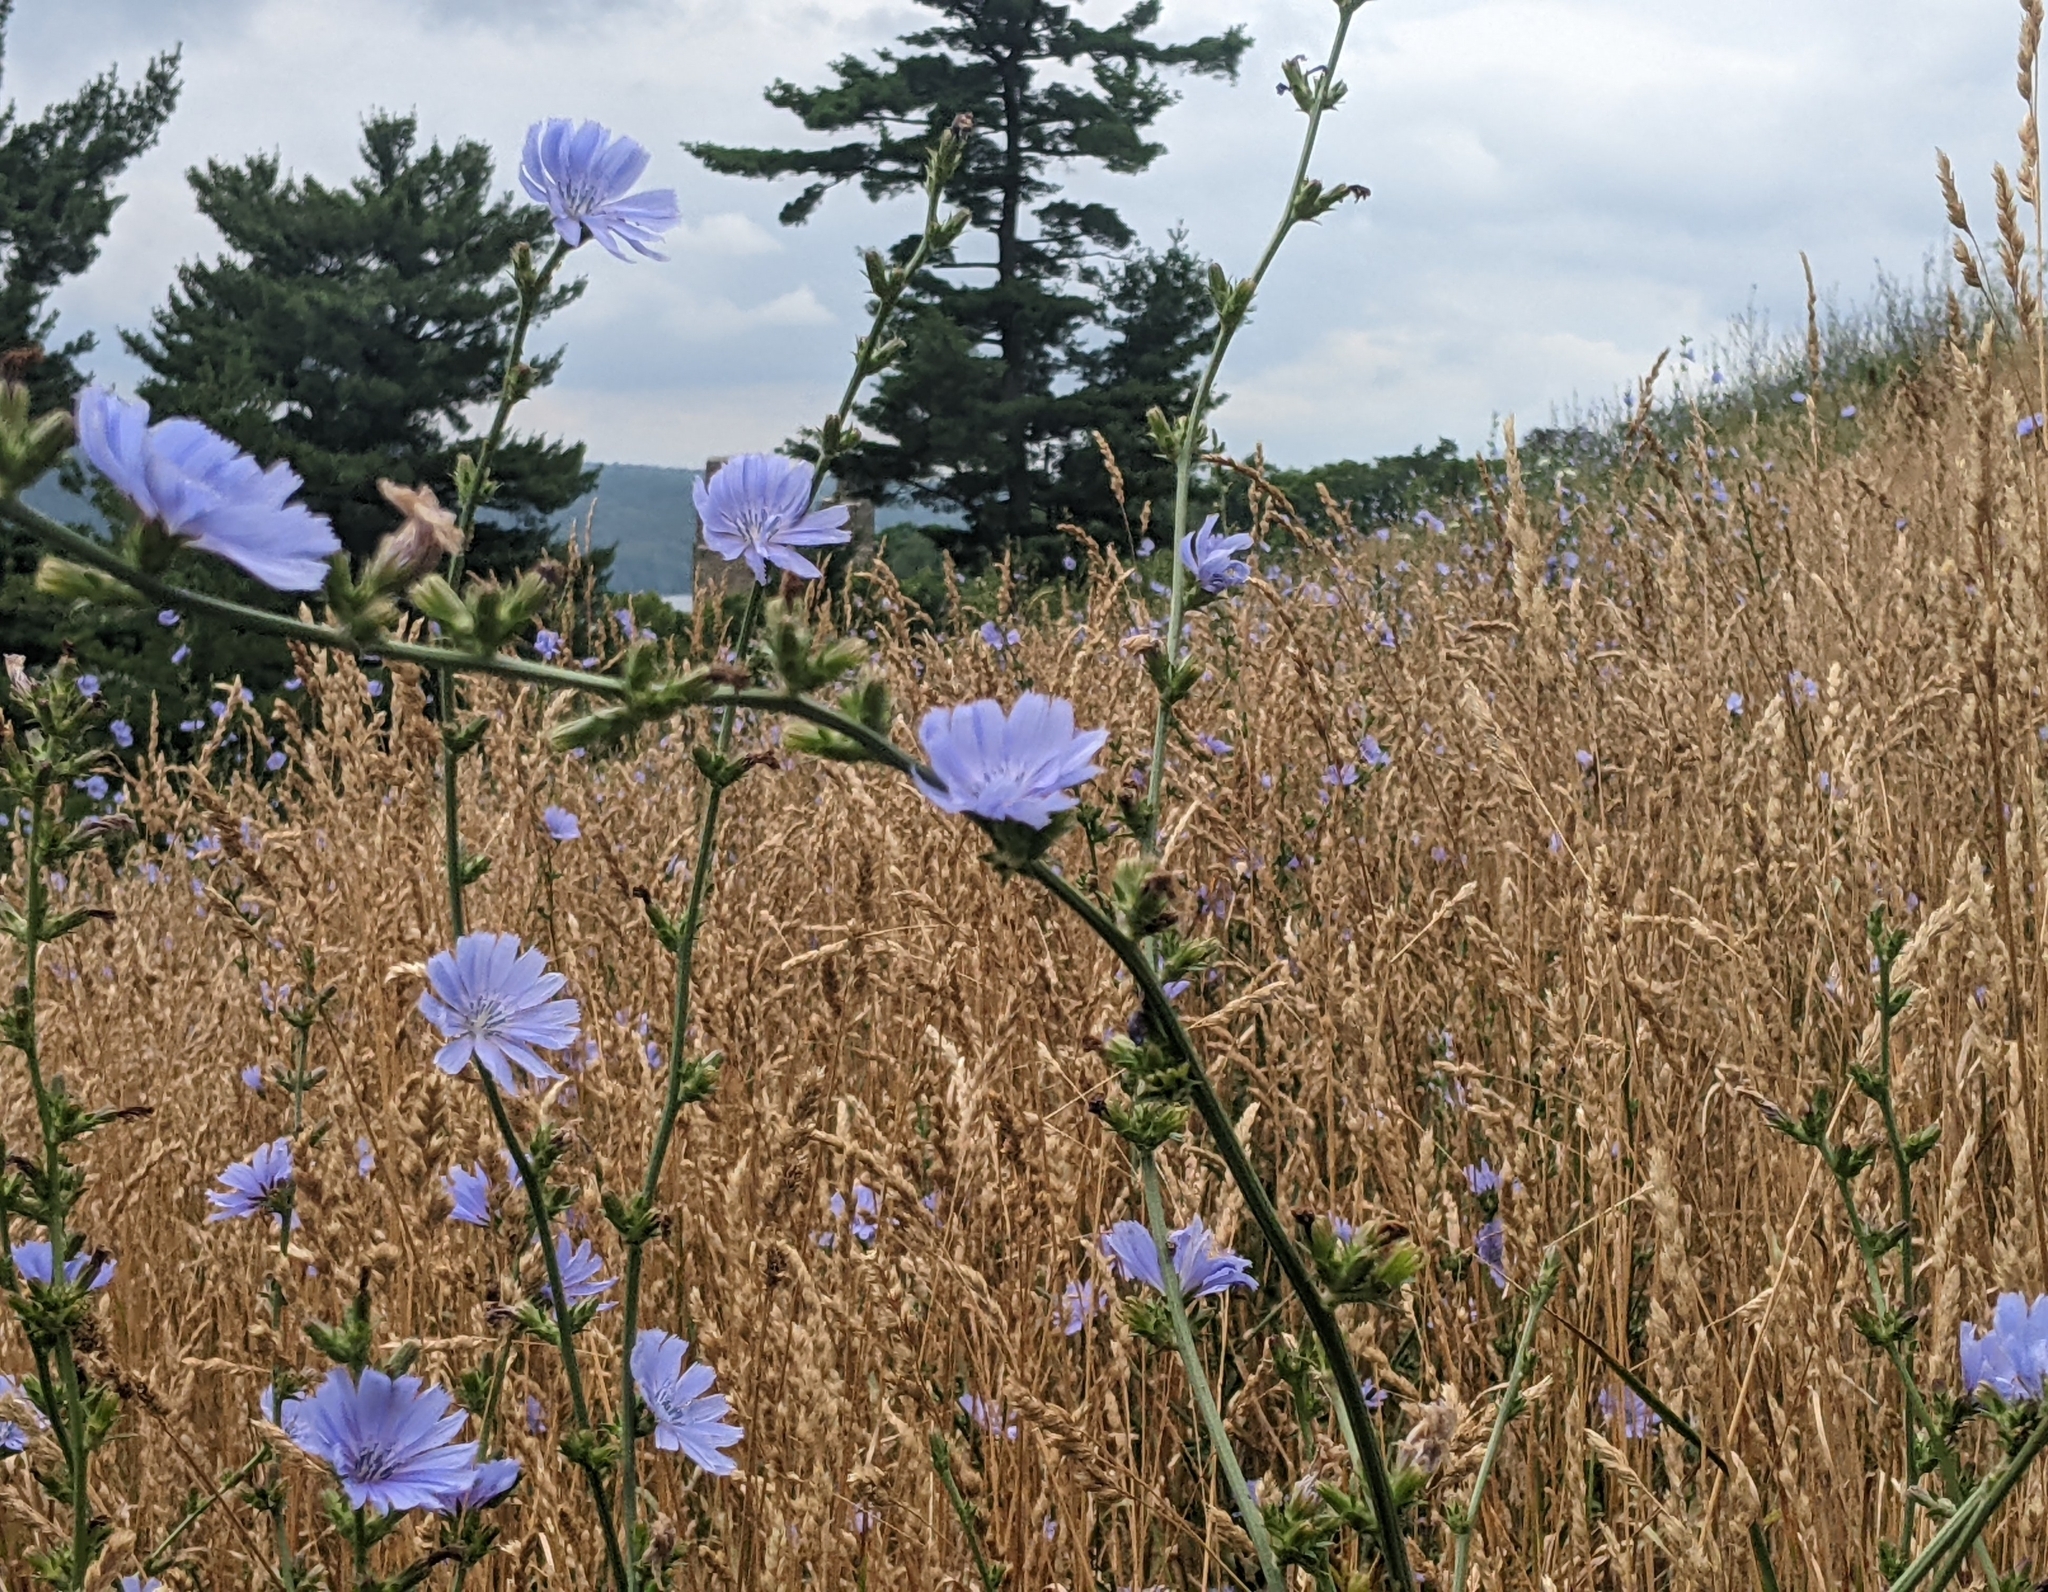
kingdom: Plantae
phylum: Tracheophyta
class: Magnoliopsida
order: Asterales
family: Asteraceae
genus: Cichorium
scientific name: Cichorium intybus
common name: Chicory
